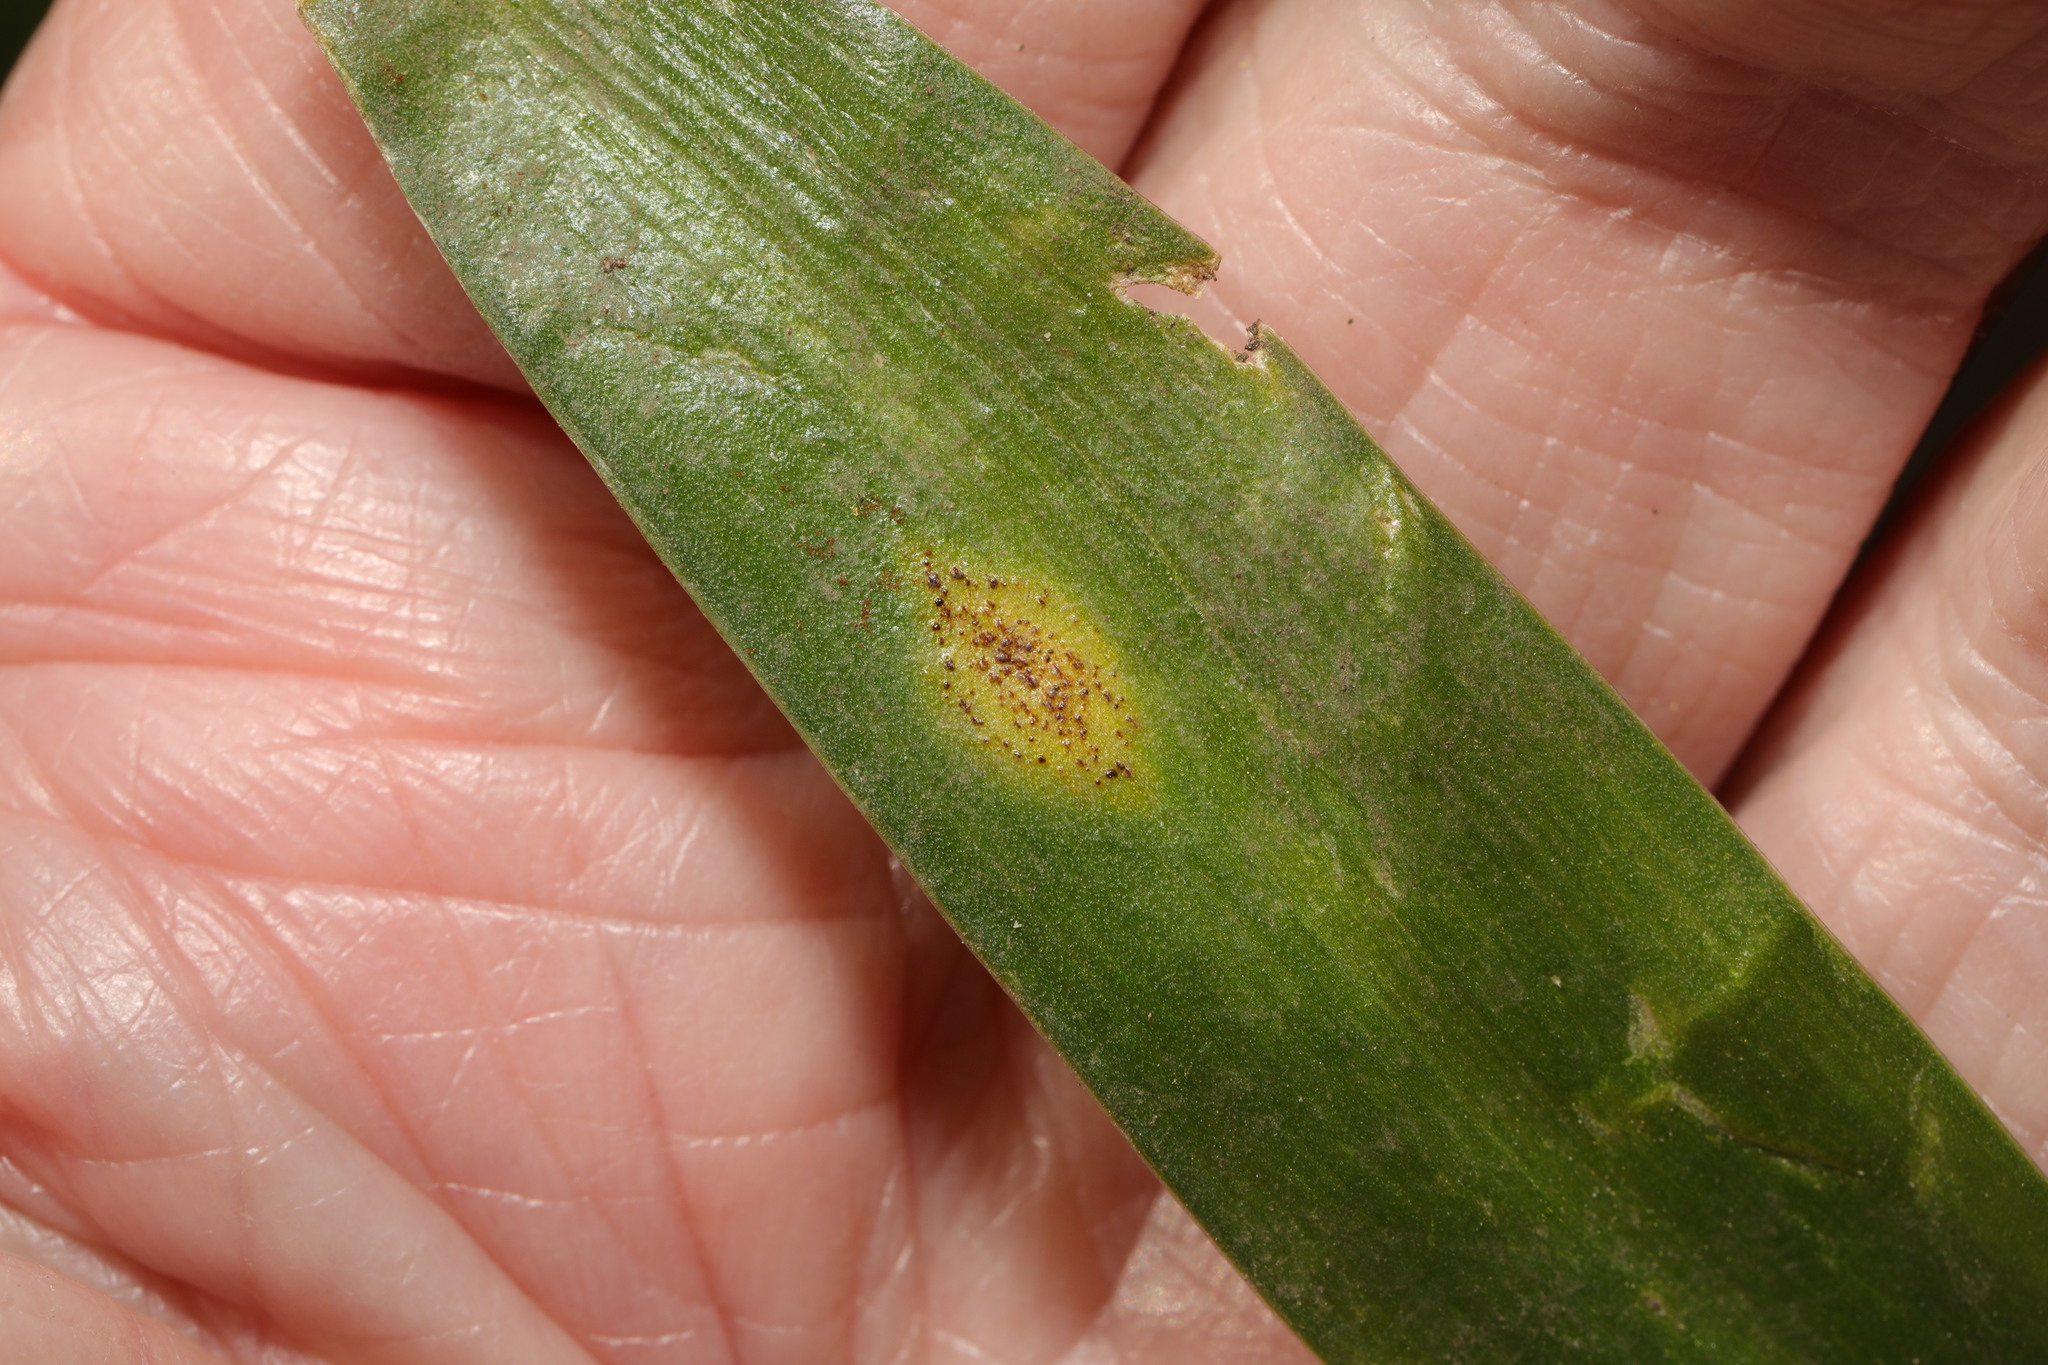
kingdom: Fungi
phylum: Basidiomycota
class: Pucciniomycetes
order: Pucciniales
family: Pucciniaceae
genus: Uromyces
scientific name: Uromyces hyacinthi
